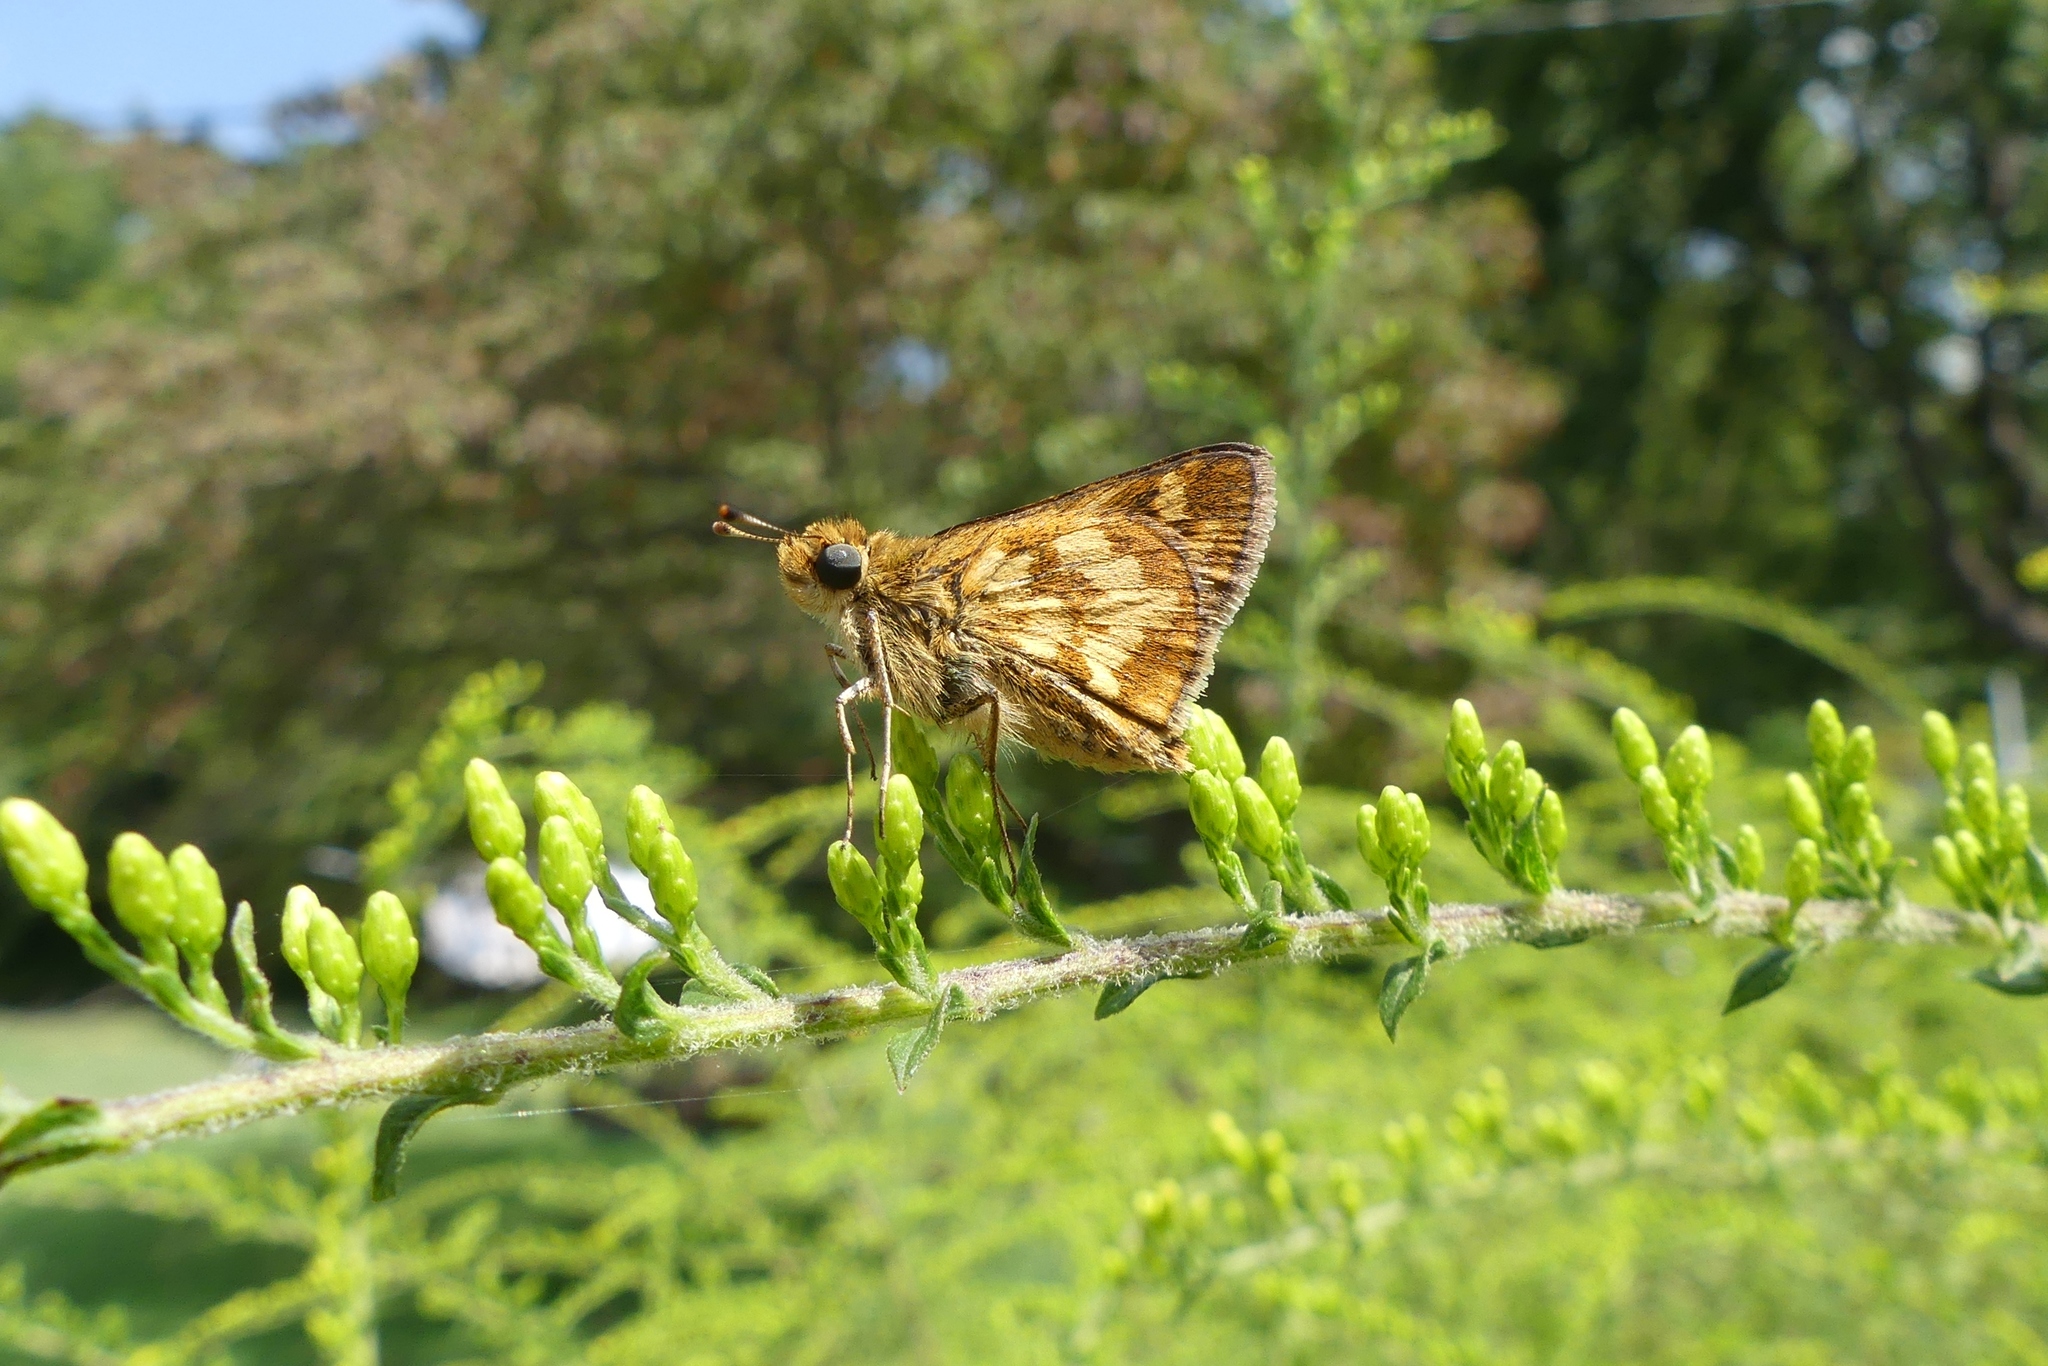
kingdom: Animalia
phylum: Arthropoda
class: Insecta
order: Lepidoptera
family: Hesperiidae
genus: Polites
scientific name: Polites coras
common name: Peck's skipper
